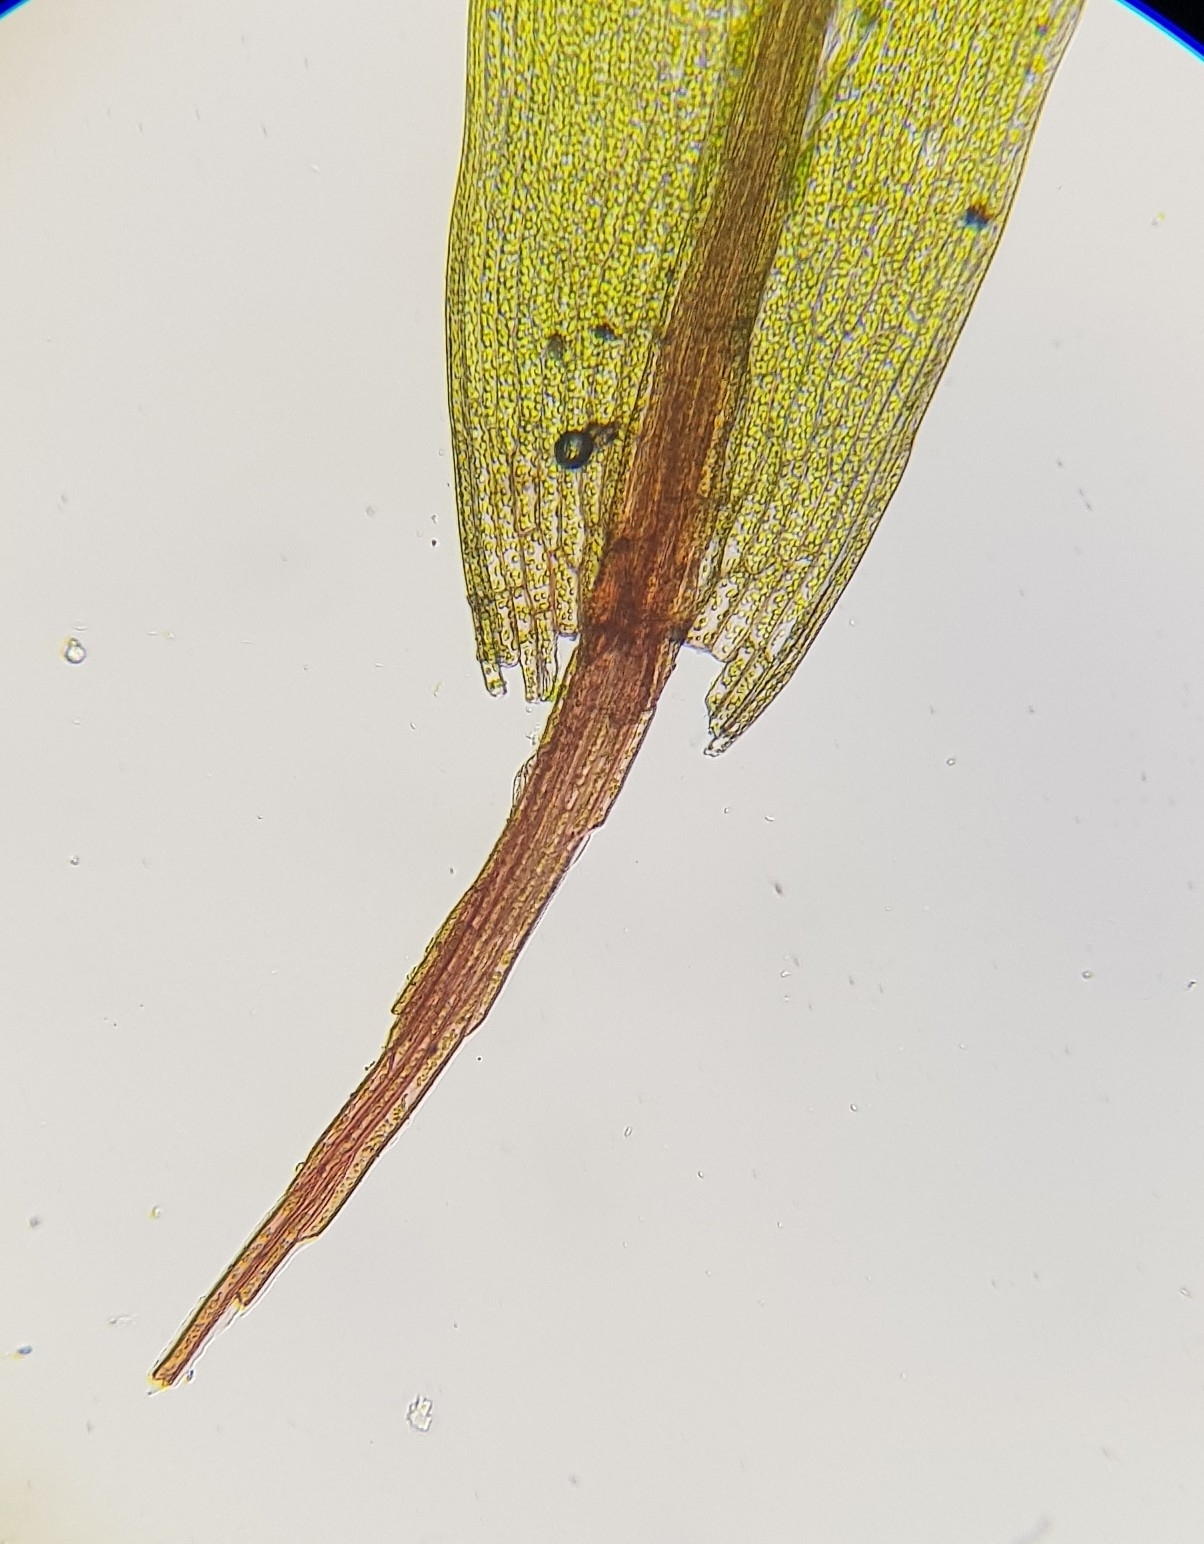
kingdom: Plantae
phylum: Bryophyta
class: Bryopsida
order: Bryales
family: Bryaceae
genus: Rosulabryum
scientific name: Rosulabryum rubens
